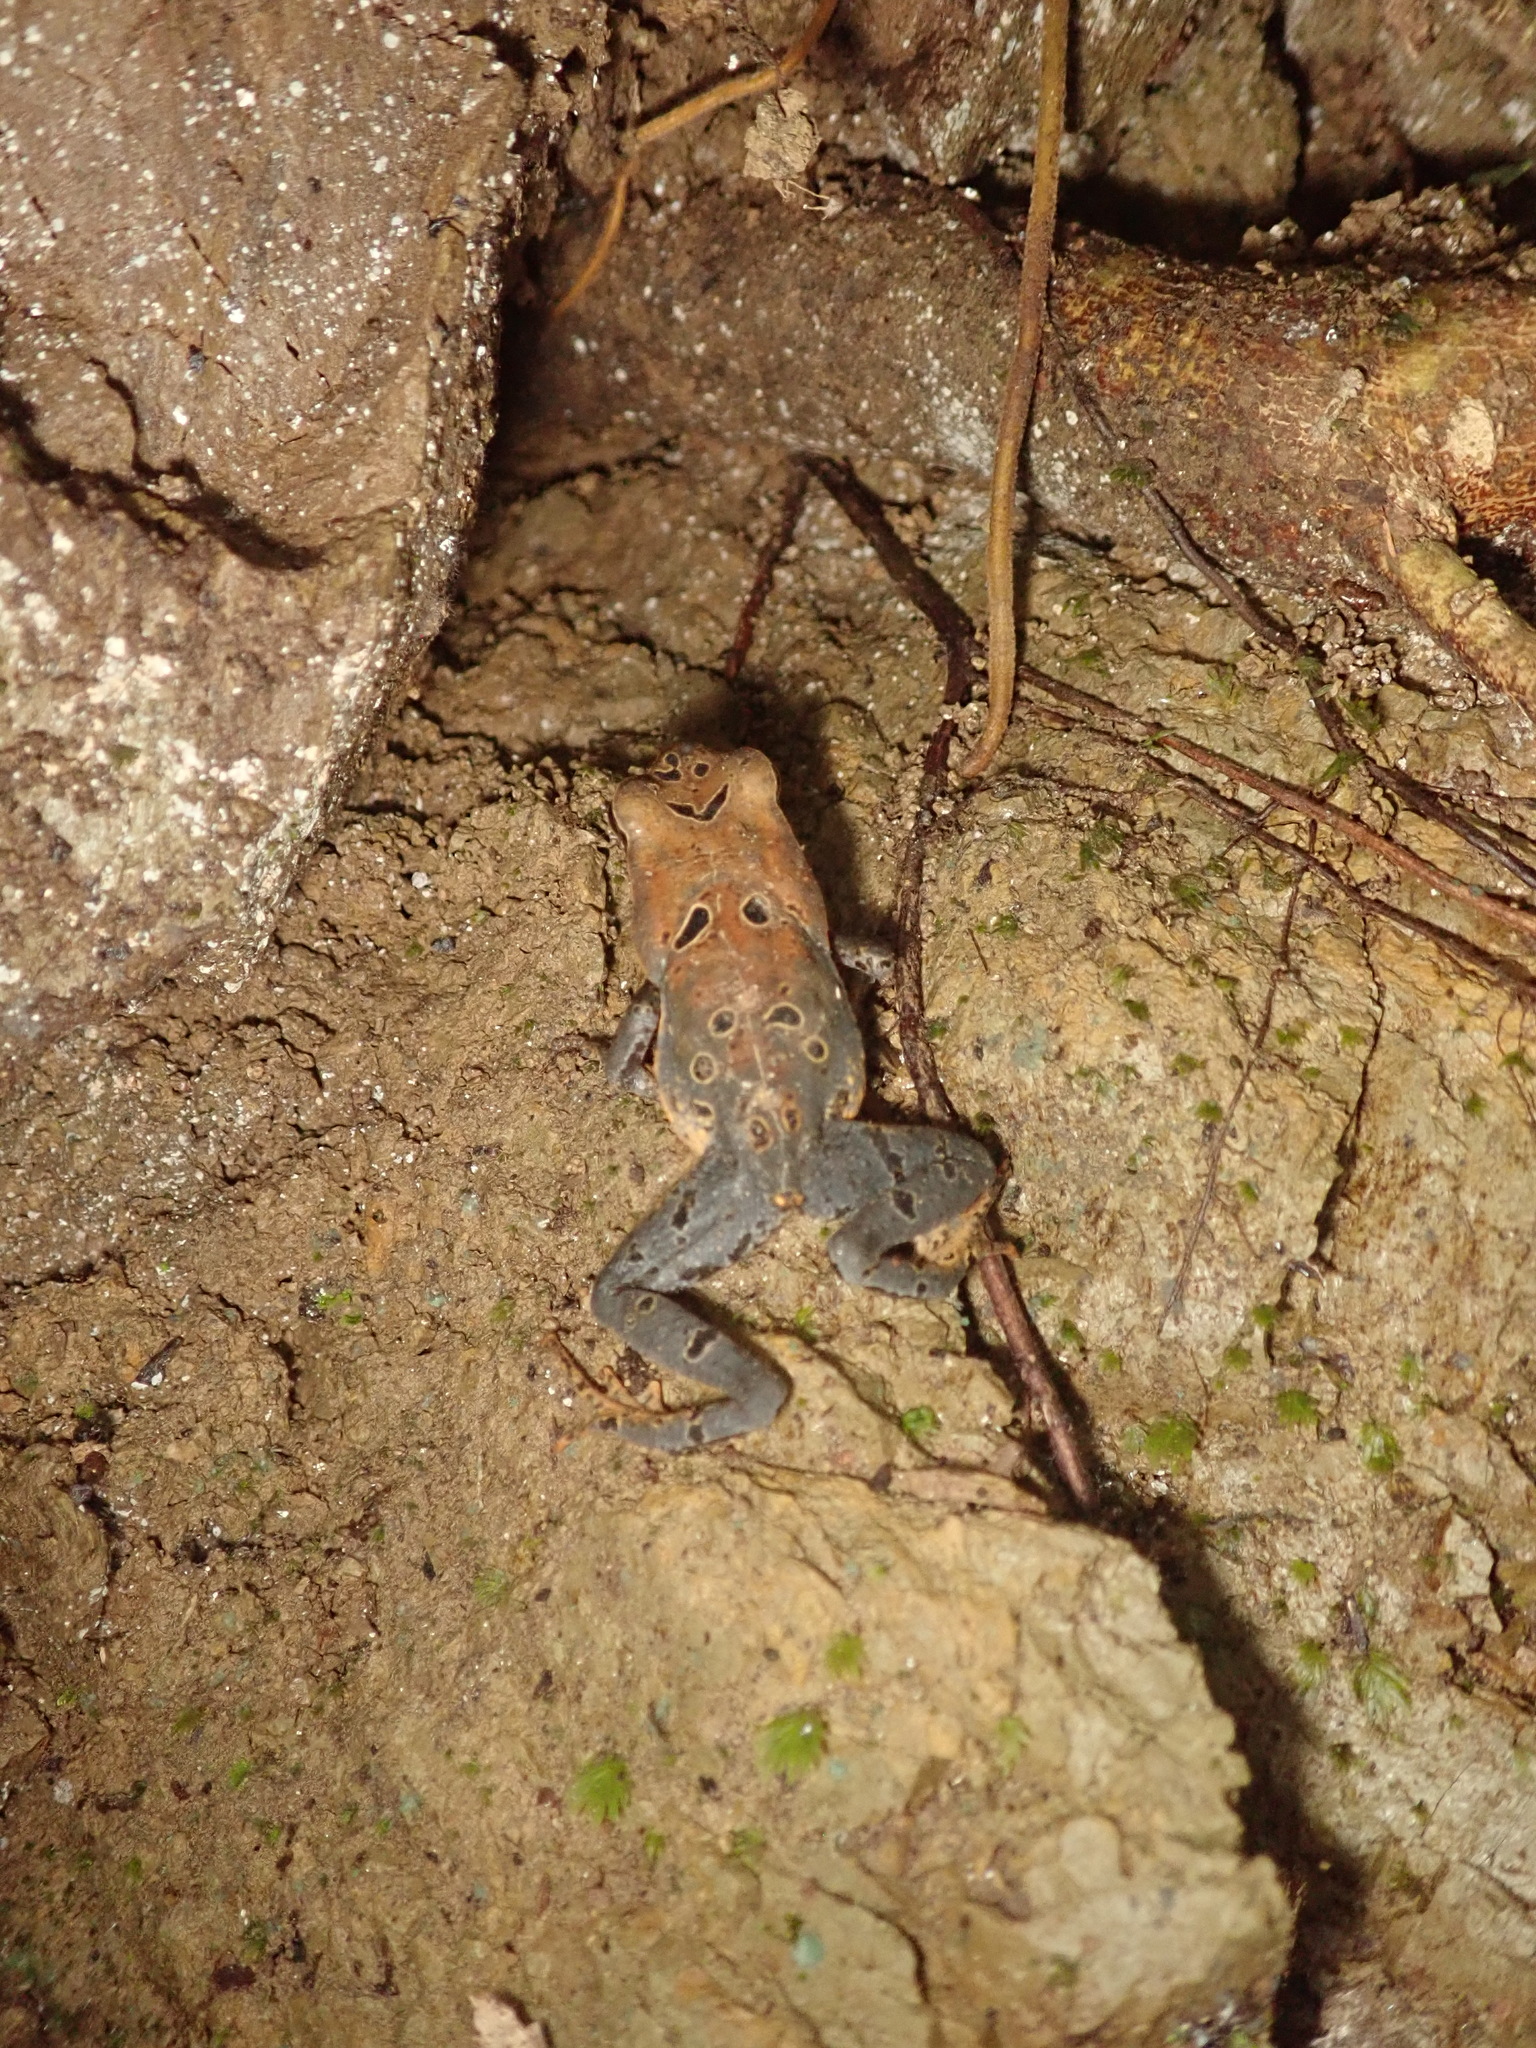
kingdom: Animalia
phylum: Chordata
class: Amphibia
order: Anura
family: Bufonidae
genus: Rhaebo
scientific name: Rhaebo haematiticus
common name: Truando toad
